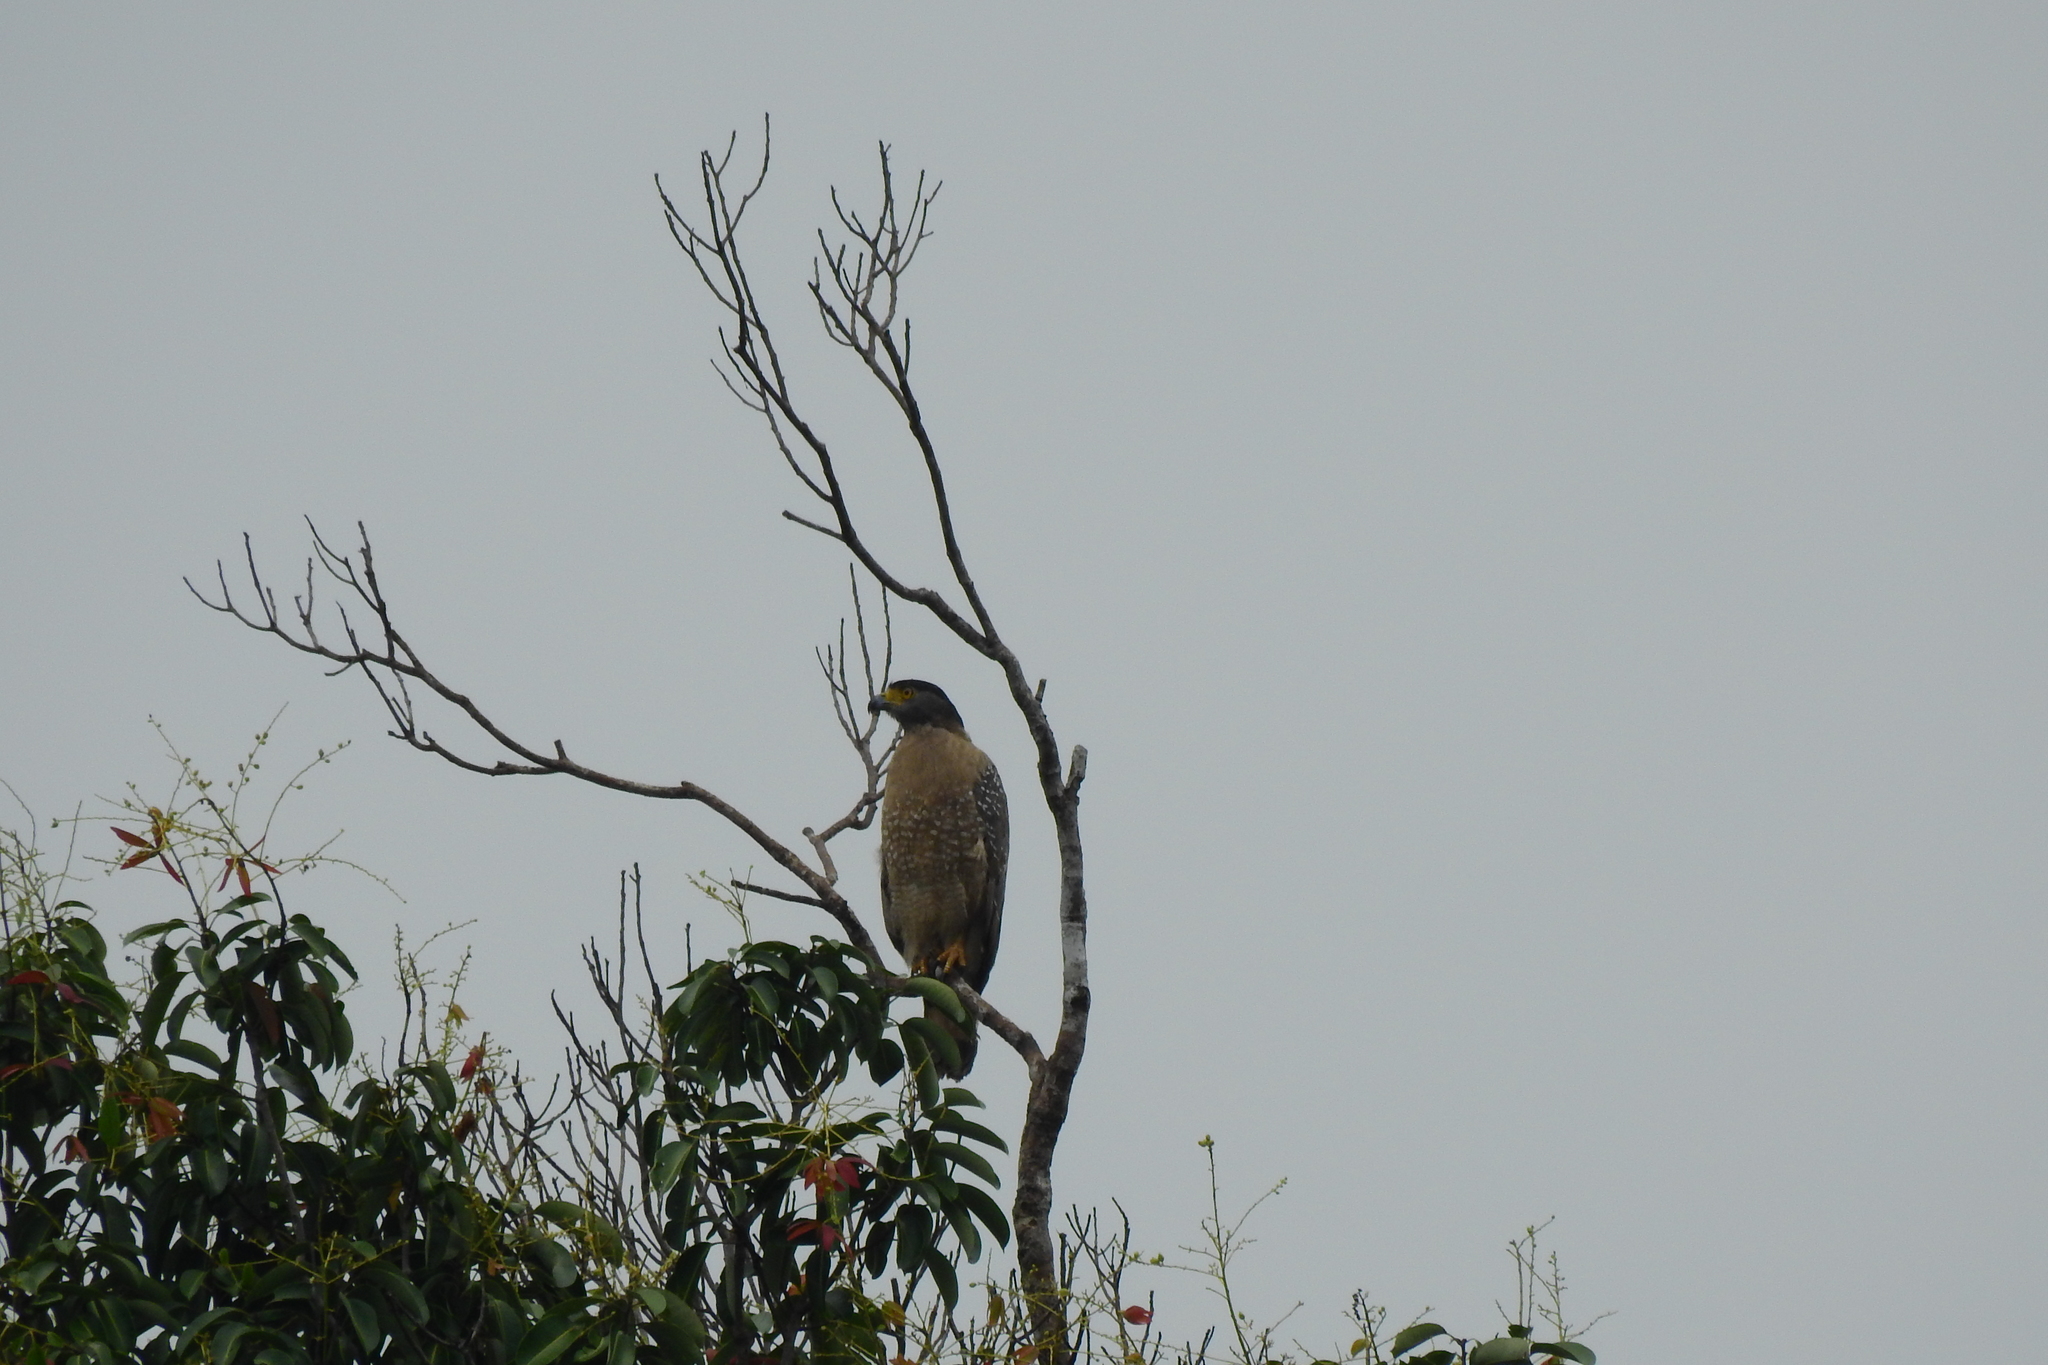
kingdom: Animalia
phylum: Chordata
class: Aves
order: Accipitriformes
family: Accipitridae
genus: Spilornis
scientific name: Spilornis cheela
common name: Crested serpent eagle
